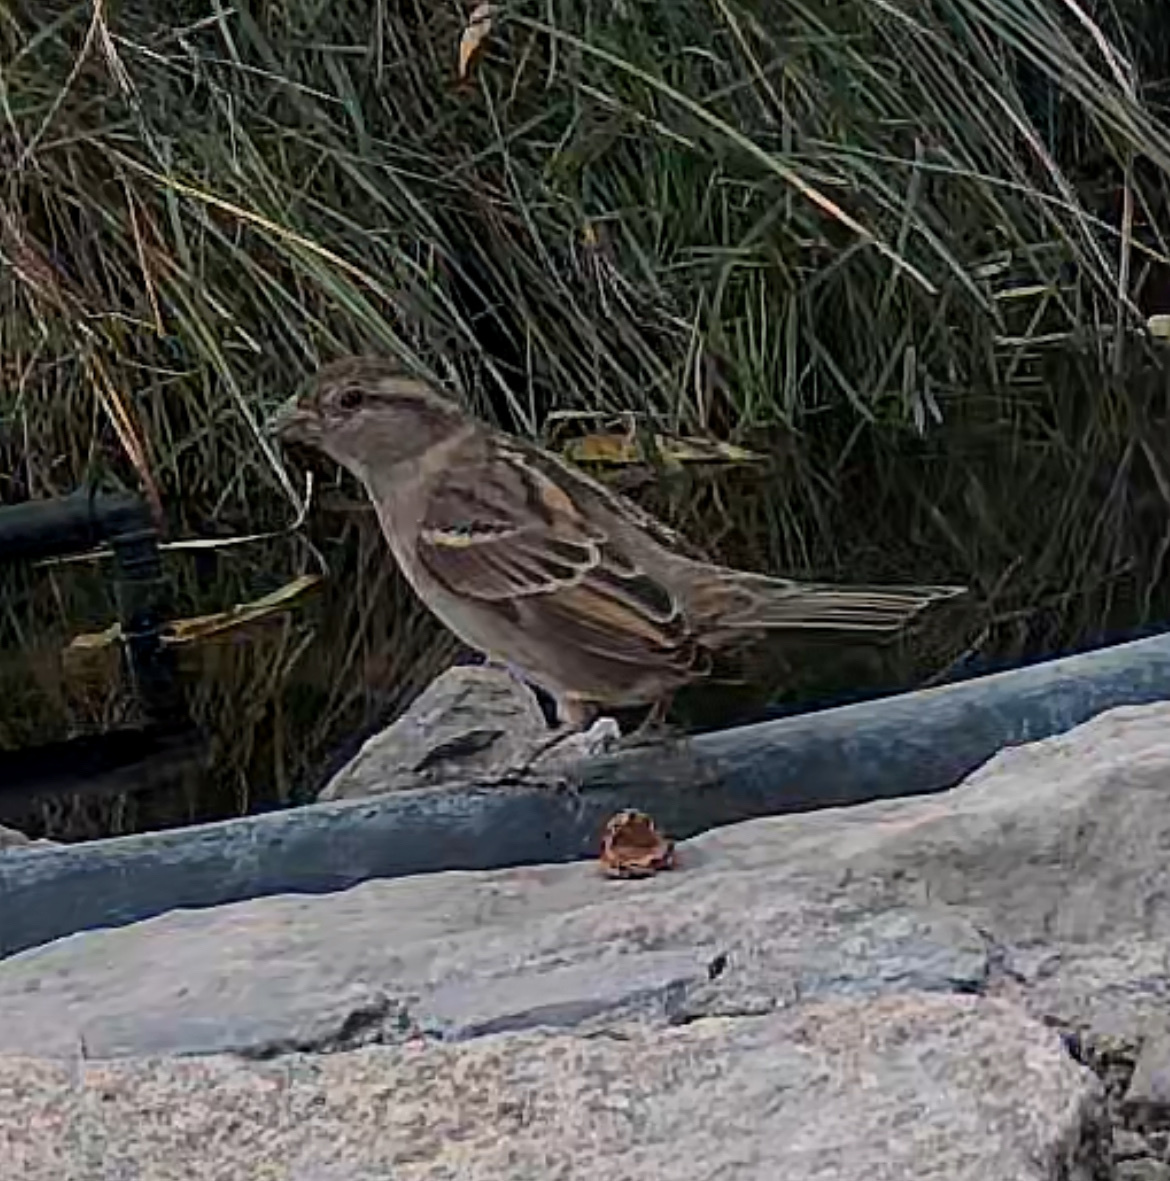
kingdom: Animalia
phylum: Chordata
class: Aves
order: Passeriformes
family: Passeridae
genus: Passer
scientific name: Passer domesticus
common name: House sparrow
